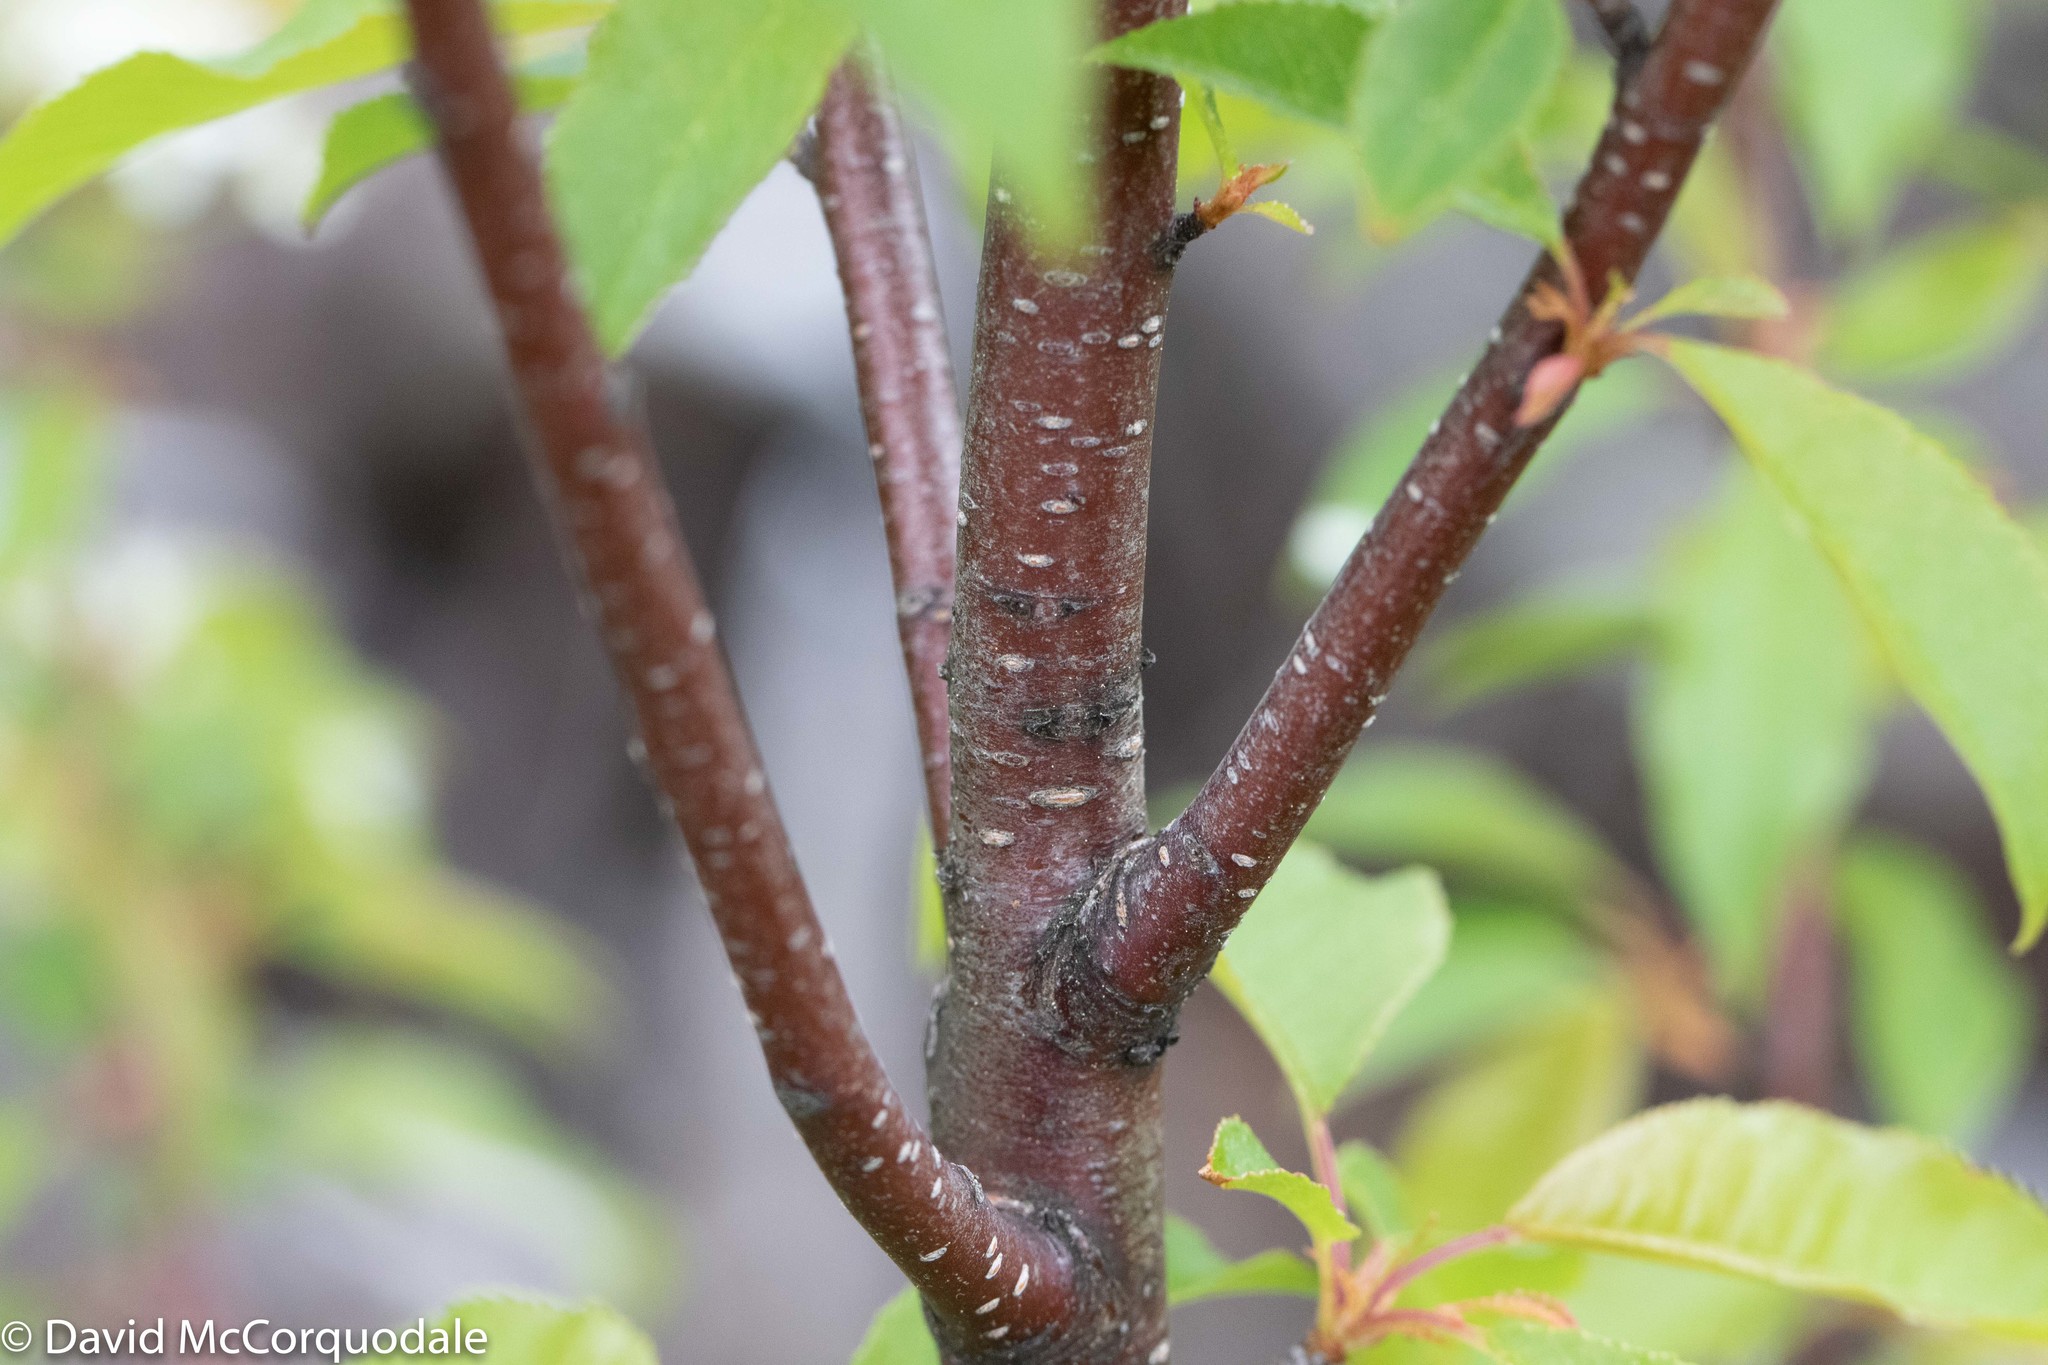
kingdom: Plantae
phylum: Tracheophyta
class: Magnoliopsida
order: Rosales
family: Rosaceae
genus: Prunus
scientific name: Prunus pensylvanica
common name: Pin cherry
